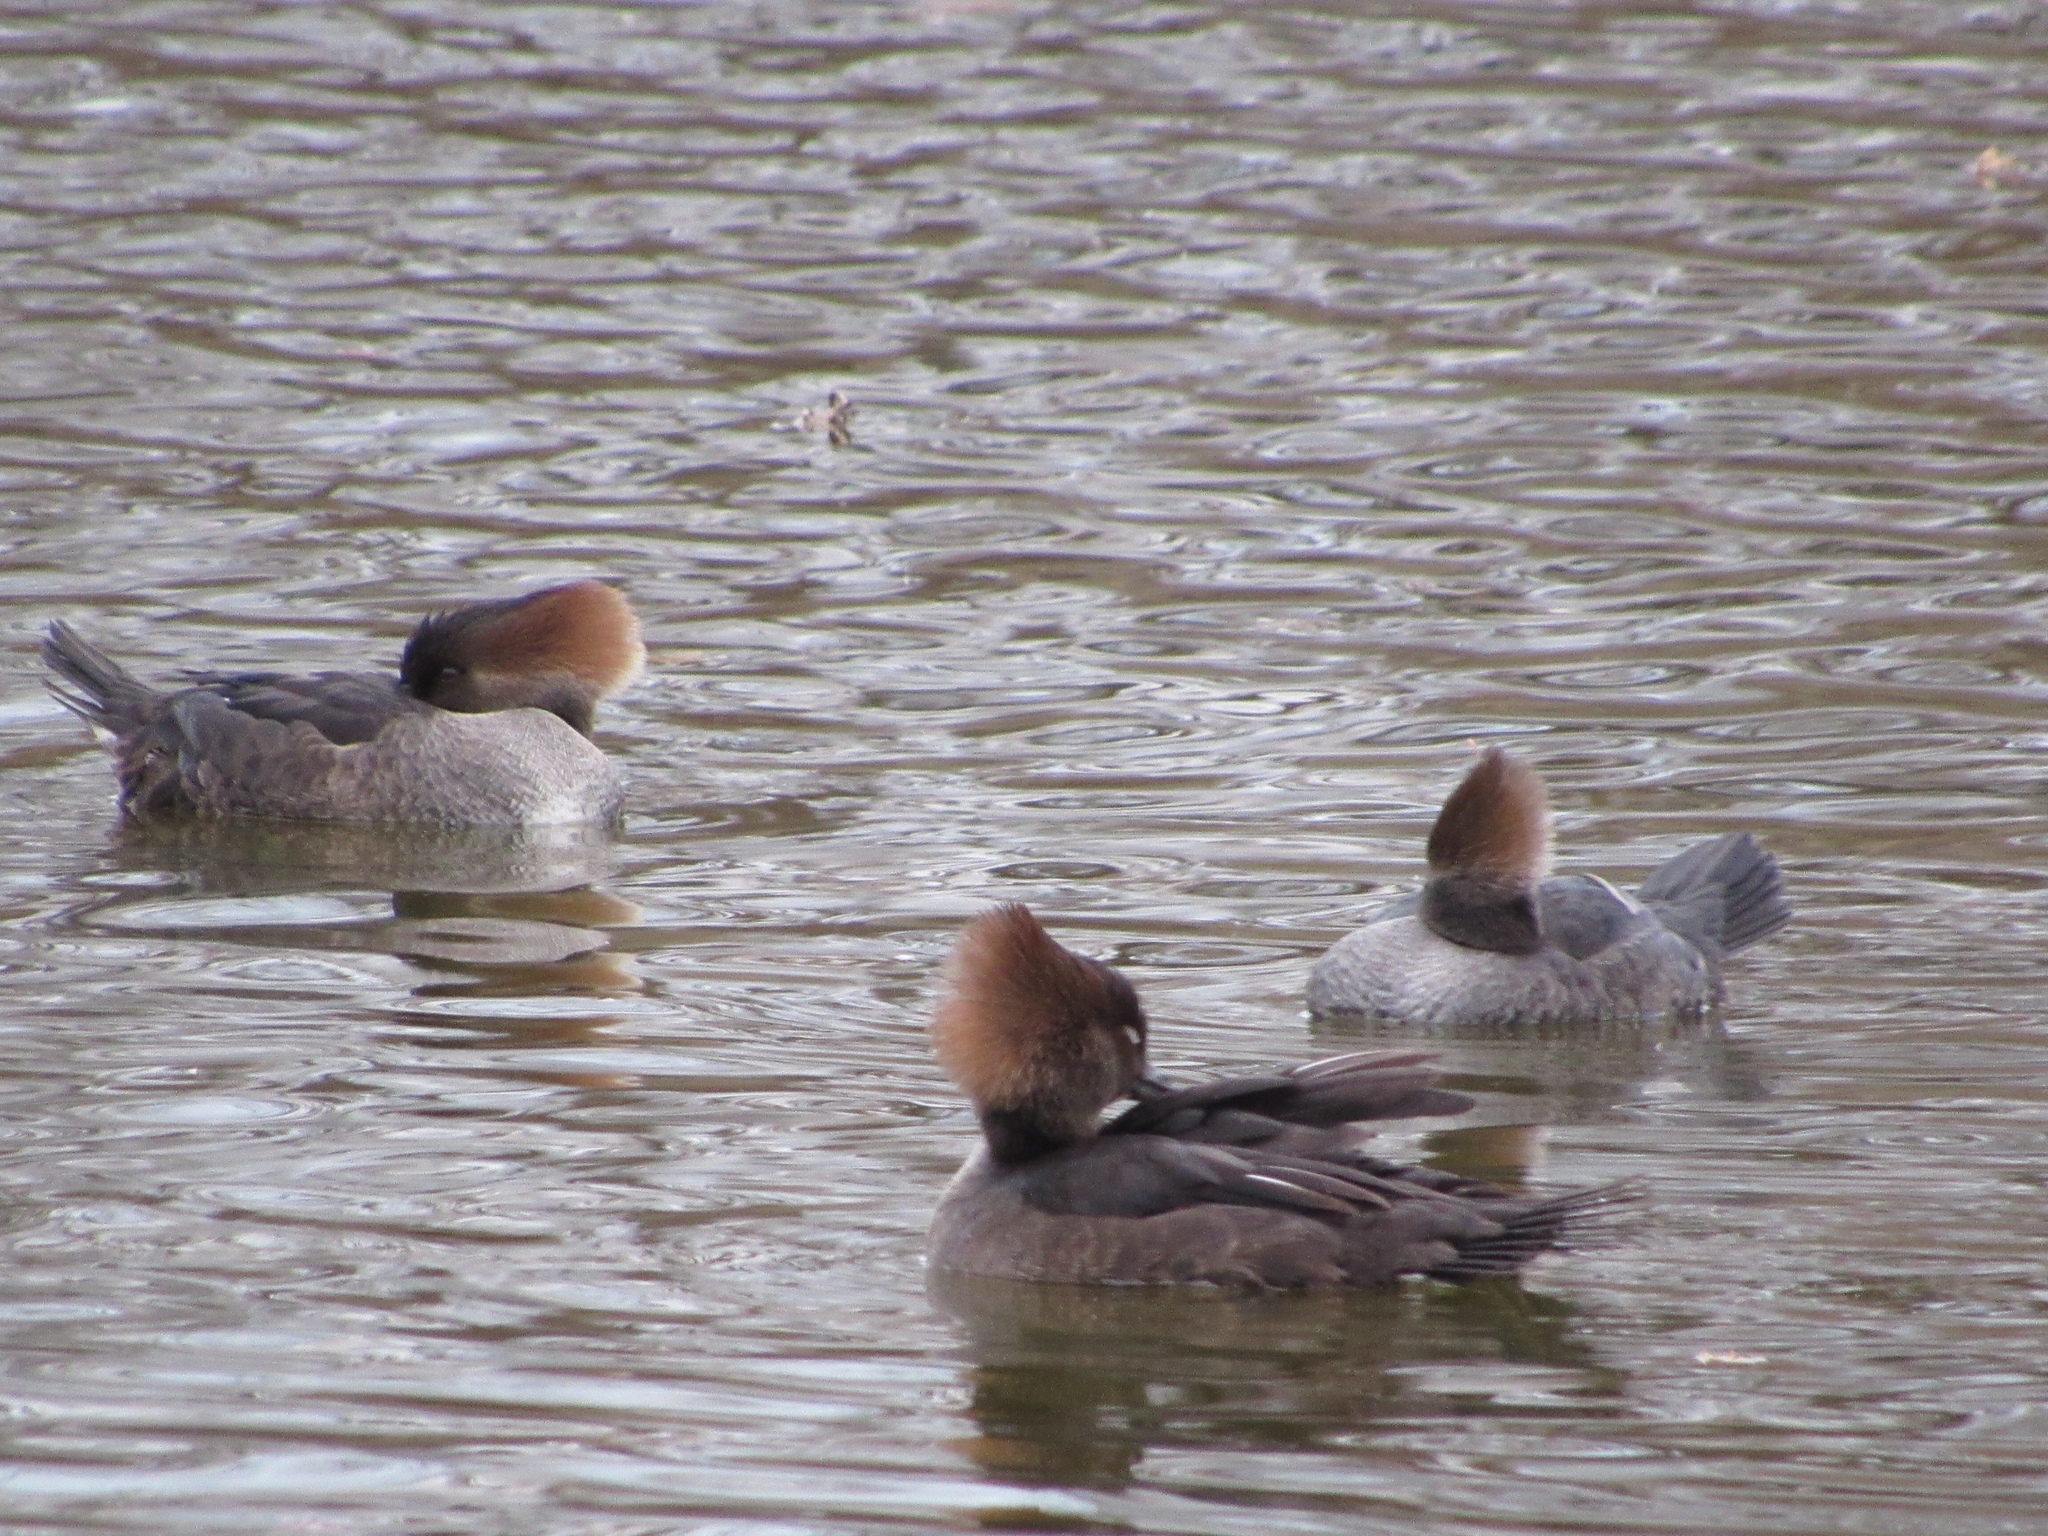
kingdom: Animalia
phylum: Chordata
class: Aves
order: Anseriformes
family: Anatidae
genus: Lophodytes
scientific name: Lophodytes cucullatus
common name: Hooded merganser
